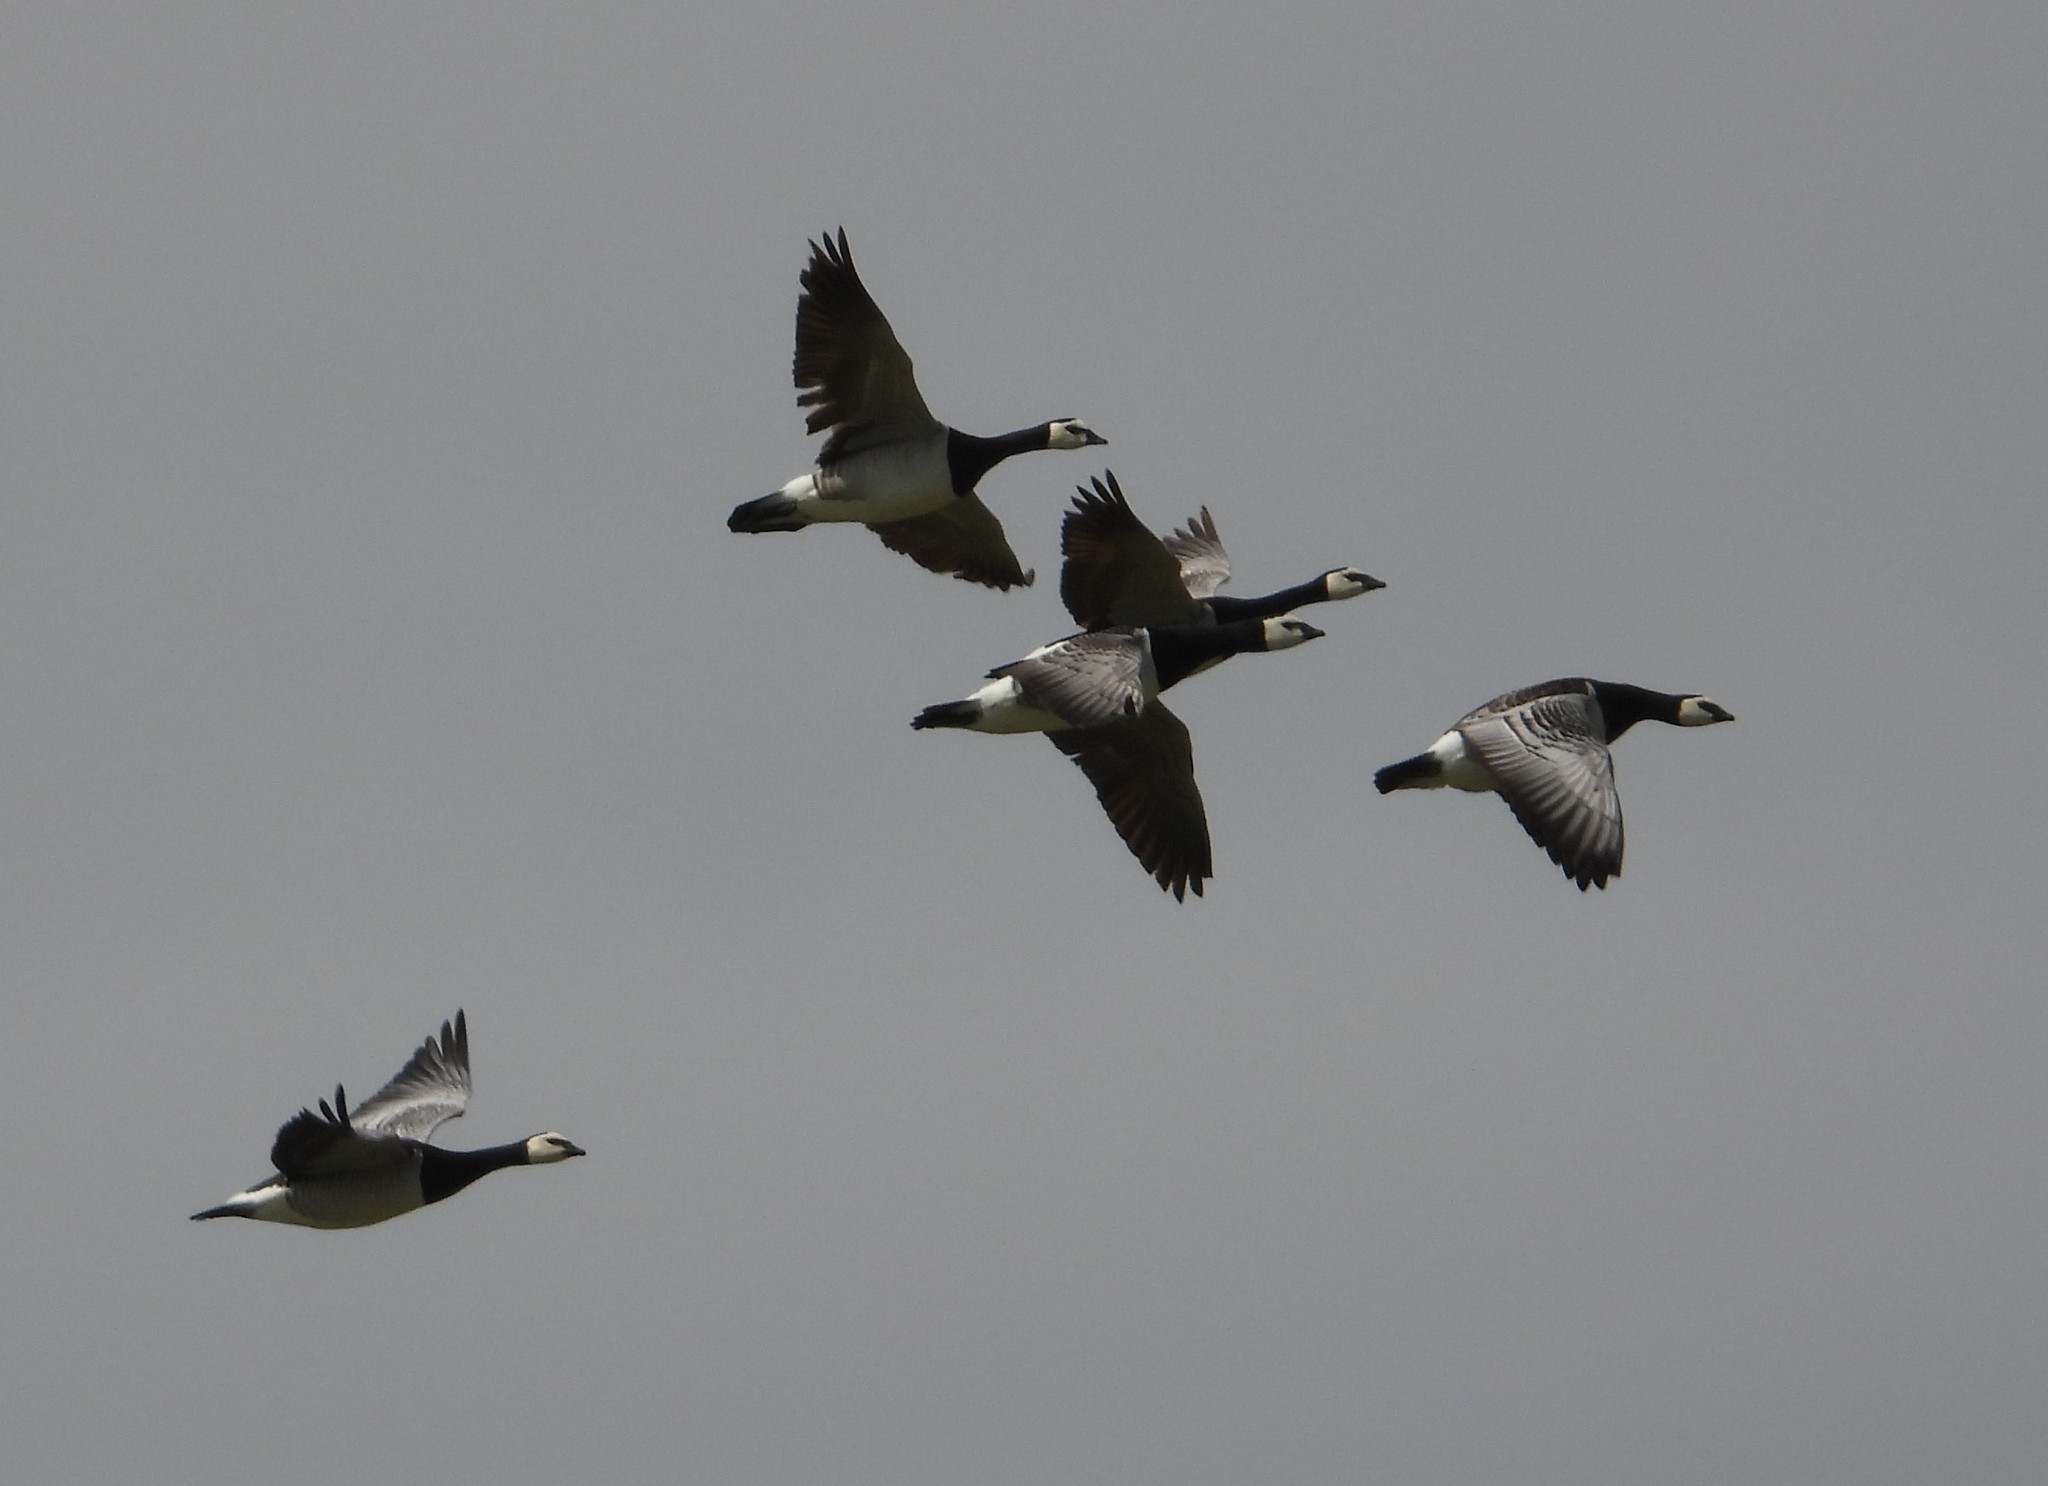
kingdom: Animalia
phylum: Chordata
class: Aves
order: Anseriformes
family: Anatidae
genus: Branta
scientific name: Branta leucopsis
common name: Barnacle goose
